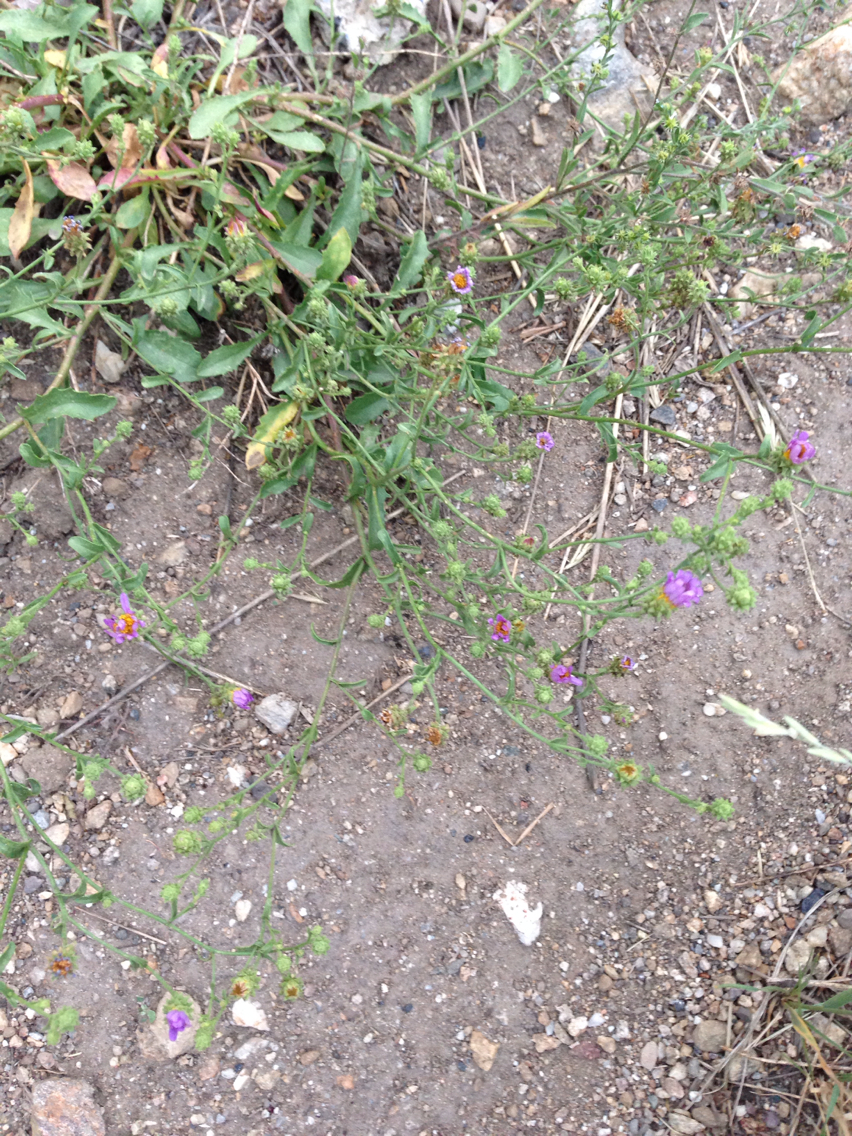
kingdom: Plantae
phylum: Tracheophyta
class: Magnoliopsida
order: Asterales
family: Asteraceae
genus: Dieteria
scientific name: Dieteria canescens
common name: Hoary-aster
